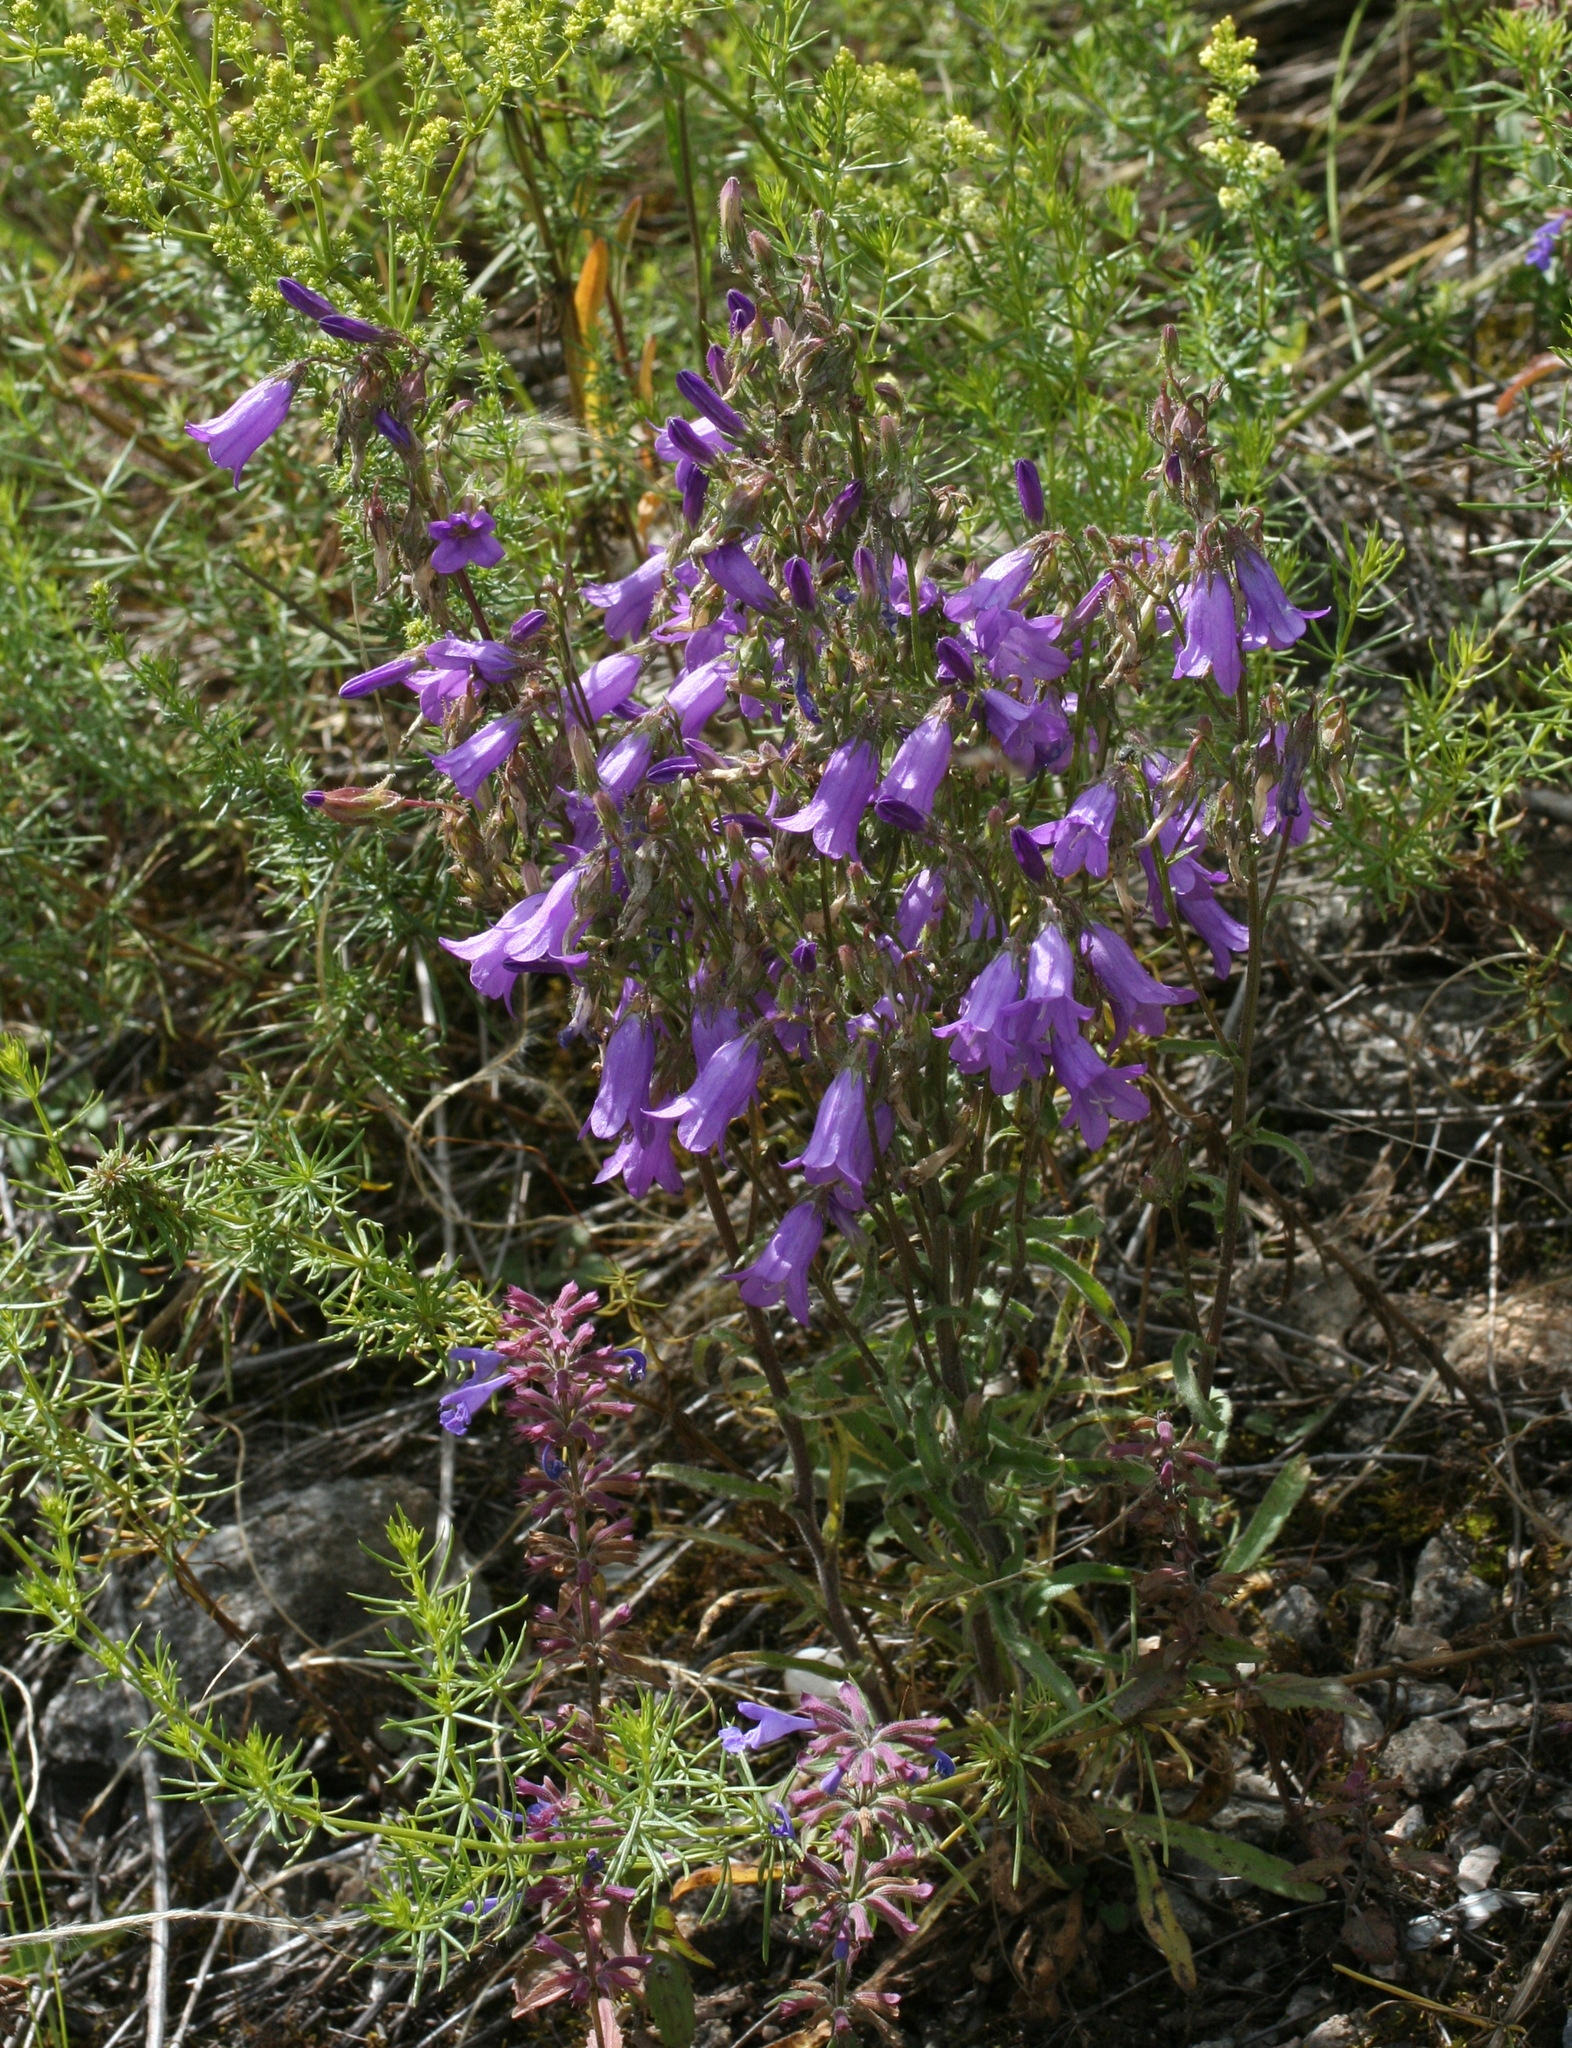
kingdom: Plantae
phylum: Tracheophyta
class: Magnoliopsida
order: Asterales
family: Campanulaceae
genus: Campanula
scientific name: Campanula sibirica
